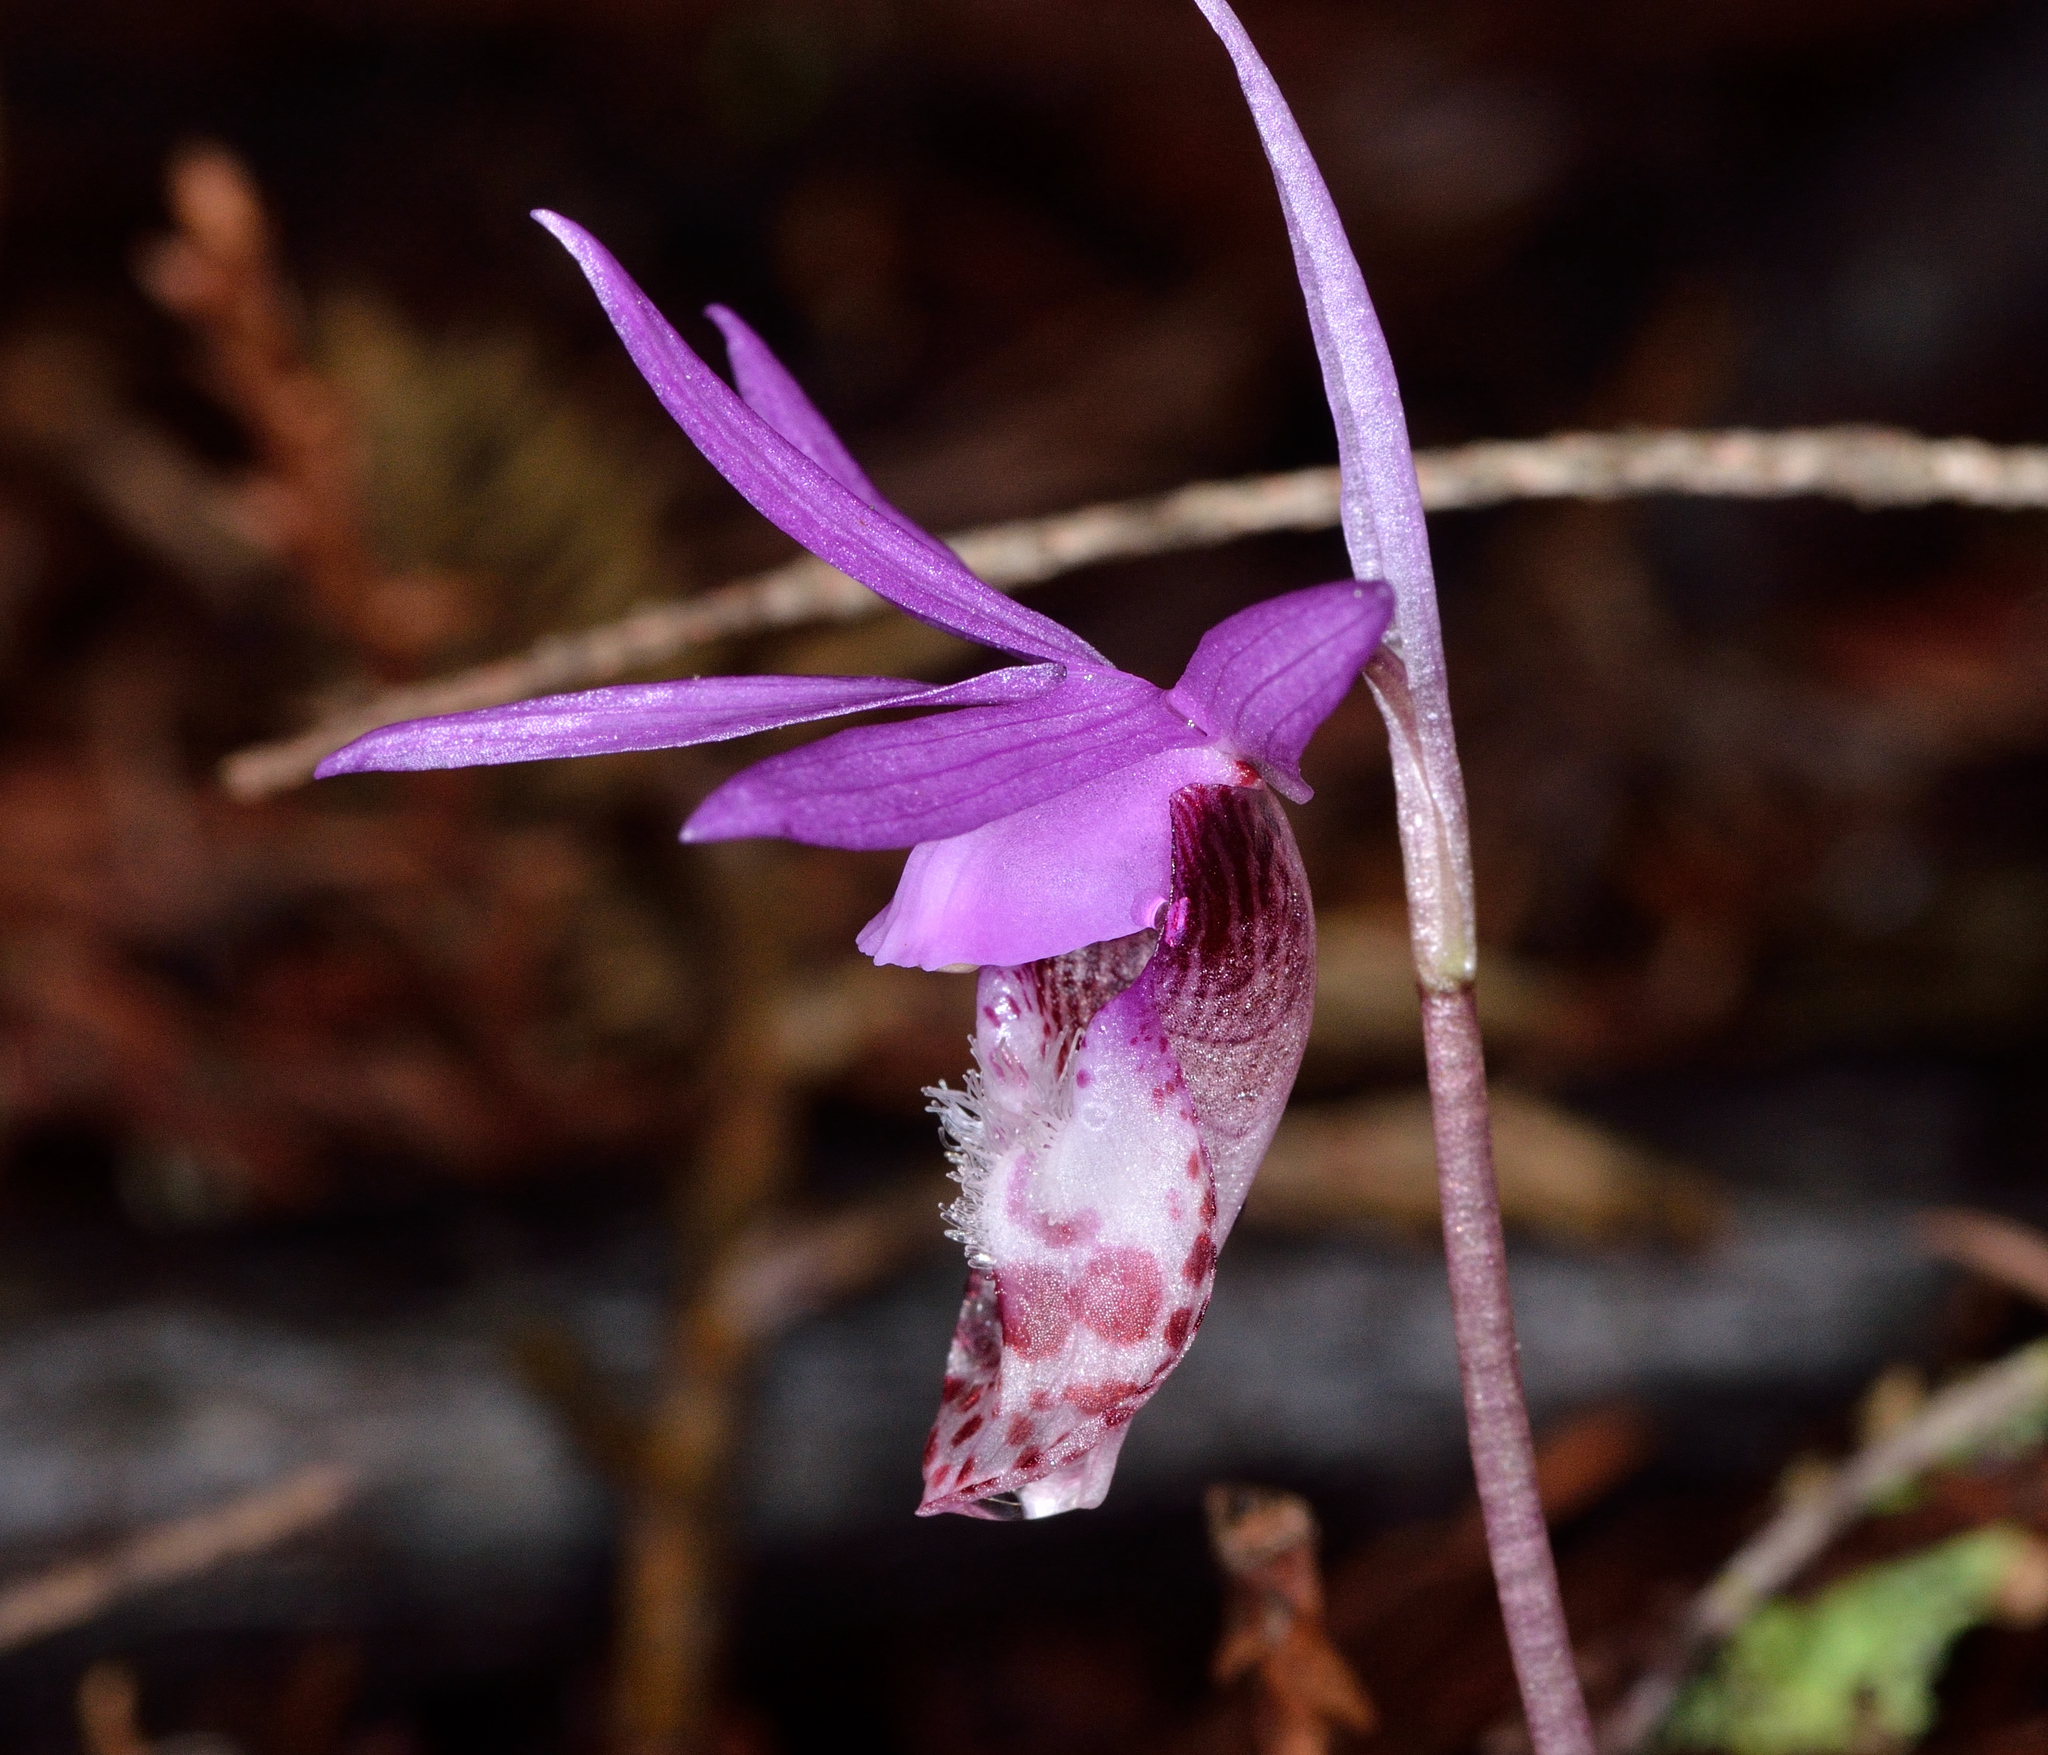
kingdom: Plantae
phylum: Tracheophyta
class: Liliopsida
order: Asparagales
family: Orchidaceae
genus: Calypso
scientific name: Calypso bulbosa
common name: Calypso
